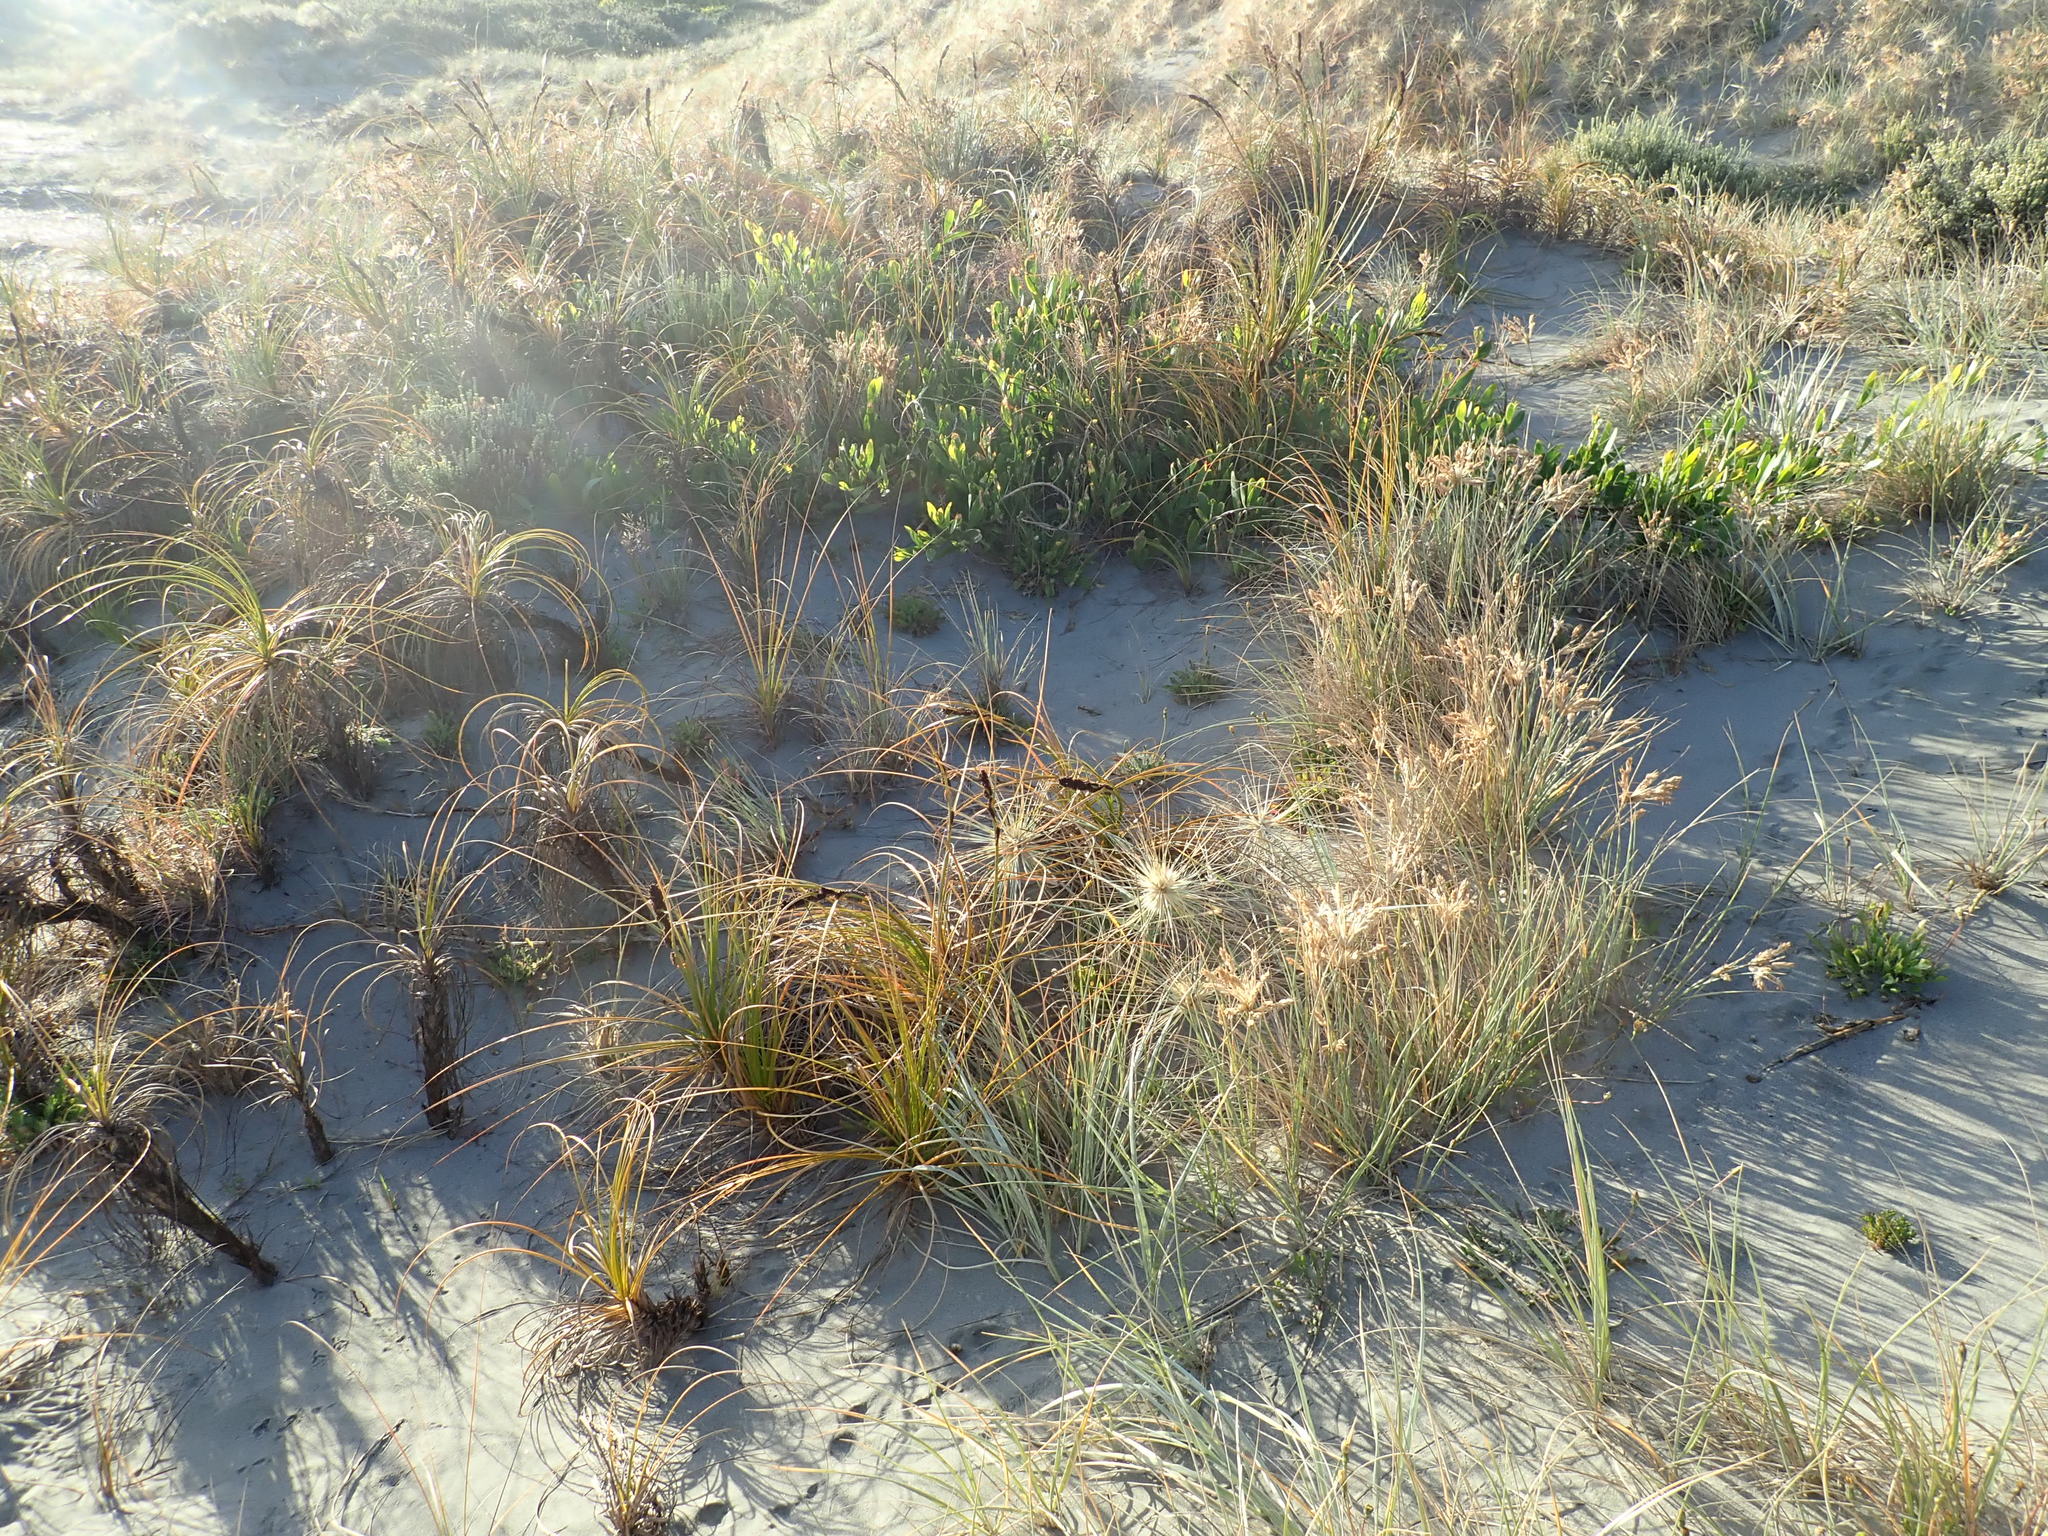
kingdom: Plantae
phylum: Tracheophyta
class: Liliopsida
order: Poales
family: Cyperaceae
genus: Ficinia
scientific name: Ficinia spiralis
